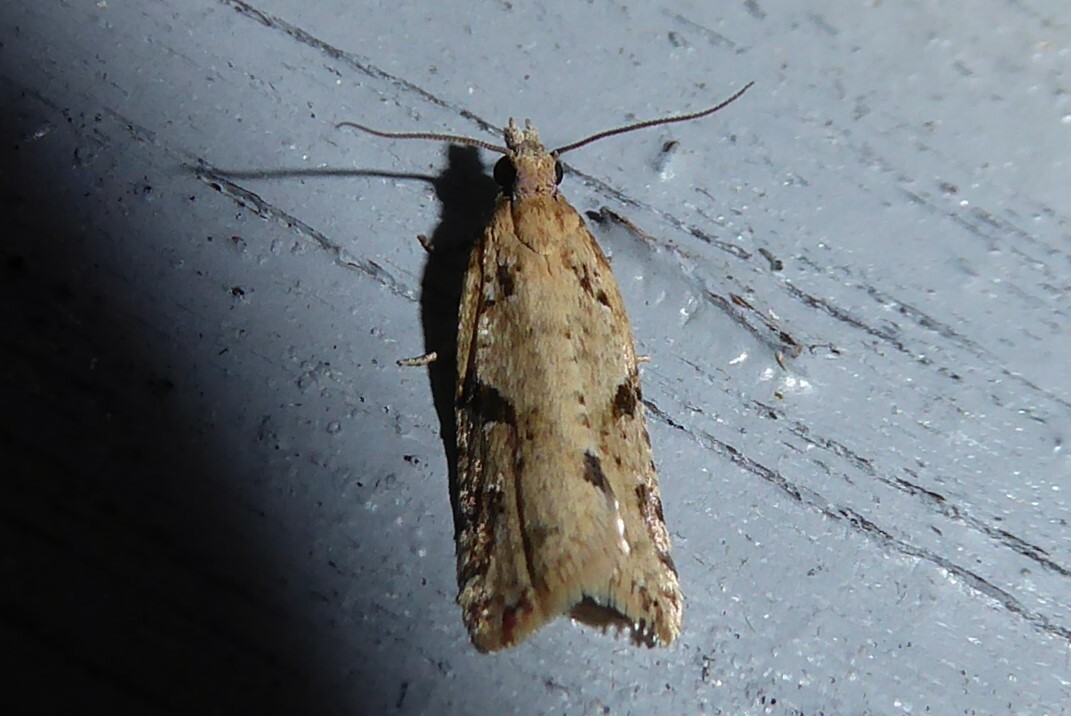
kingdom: Animalia
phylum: Arthropoda
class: Insecta
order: Lepidoptera
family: Tortricidae
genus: Capua
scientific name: Capua semiferana
